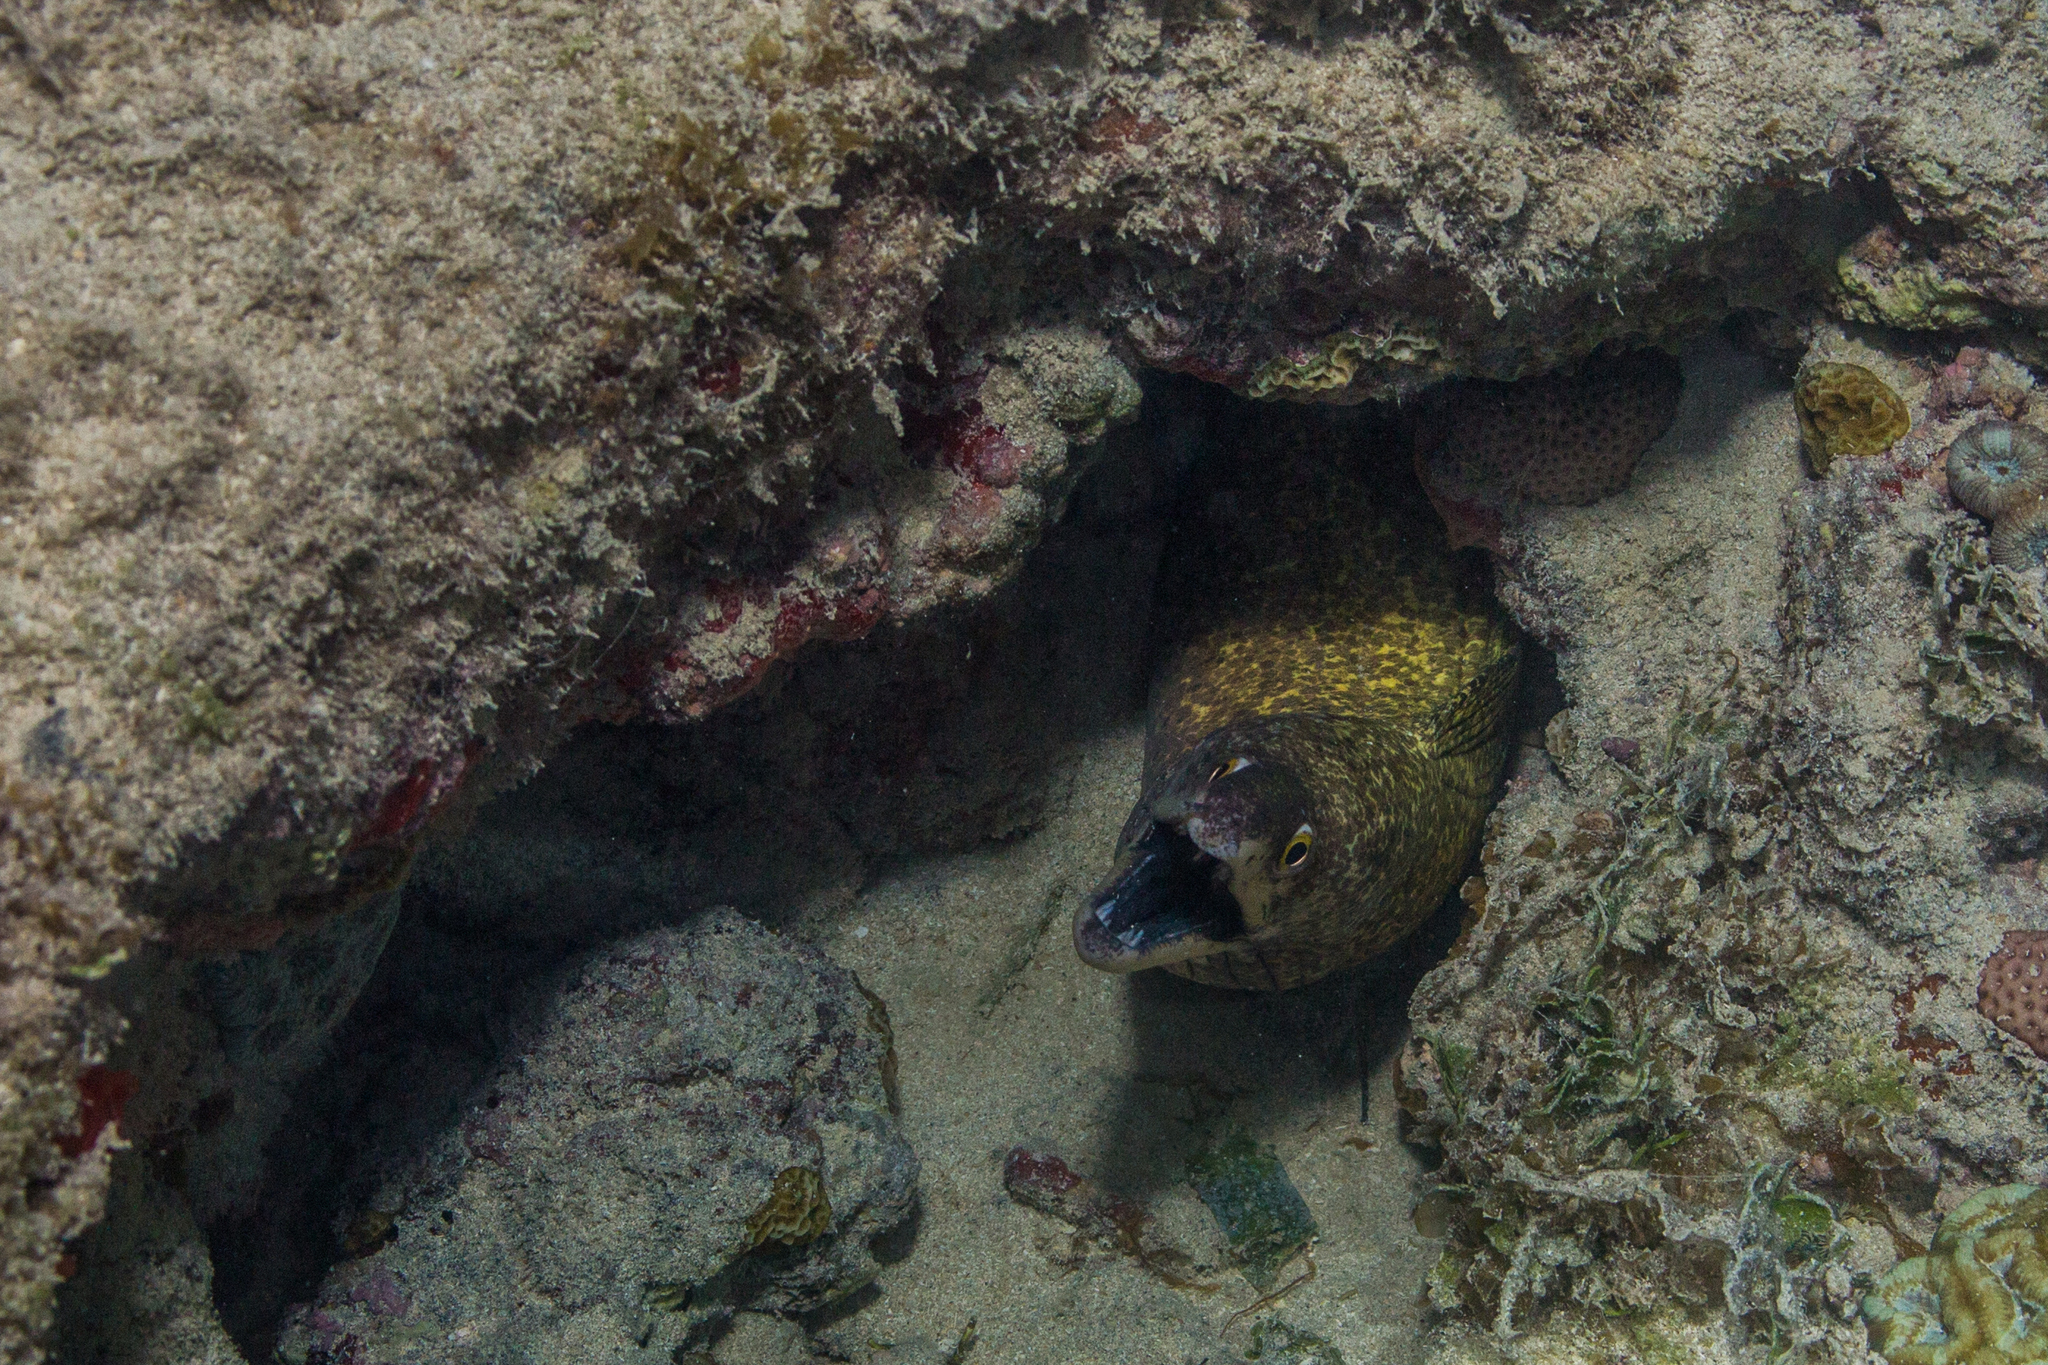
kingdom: Animalia
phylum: Chordata
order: Anguilliformes
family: Muraenidae
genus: Gymnothorax
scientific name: Gymnothorax moringa
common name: Spotted moray
